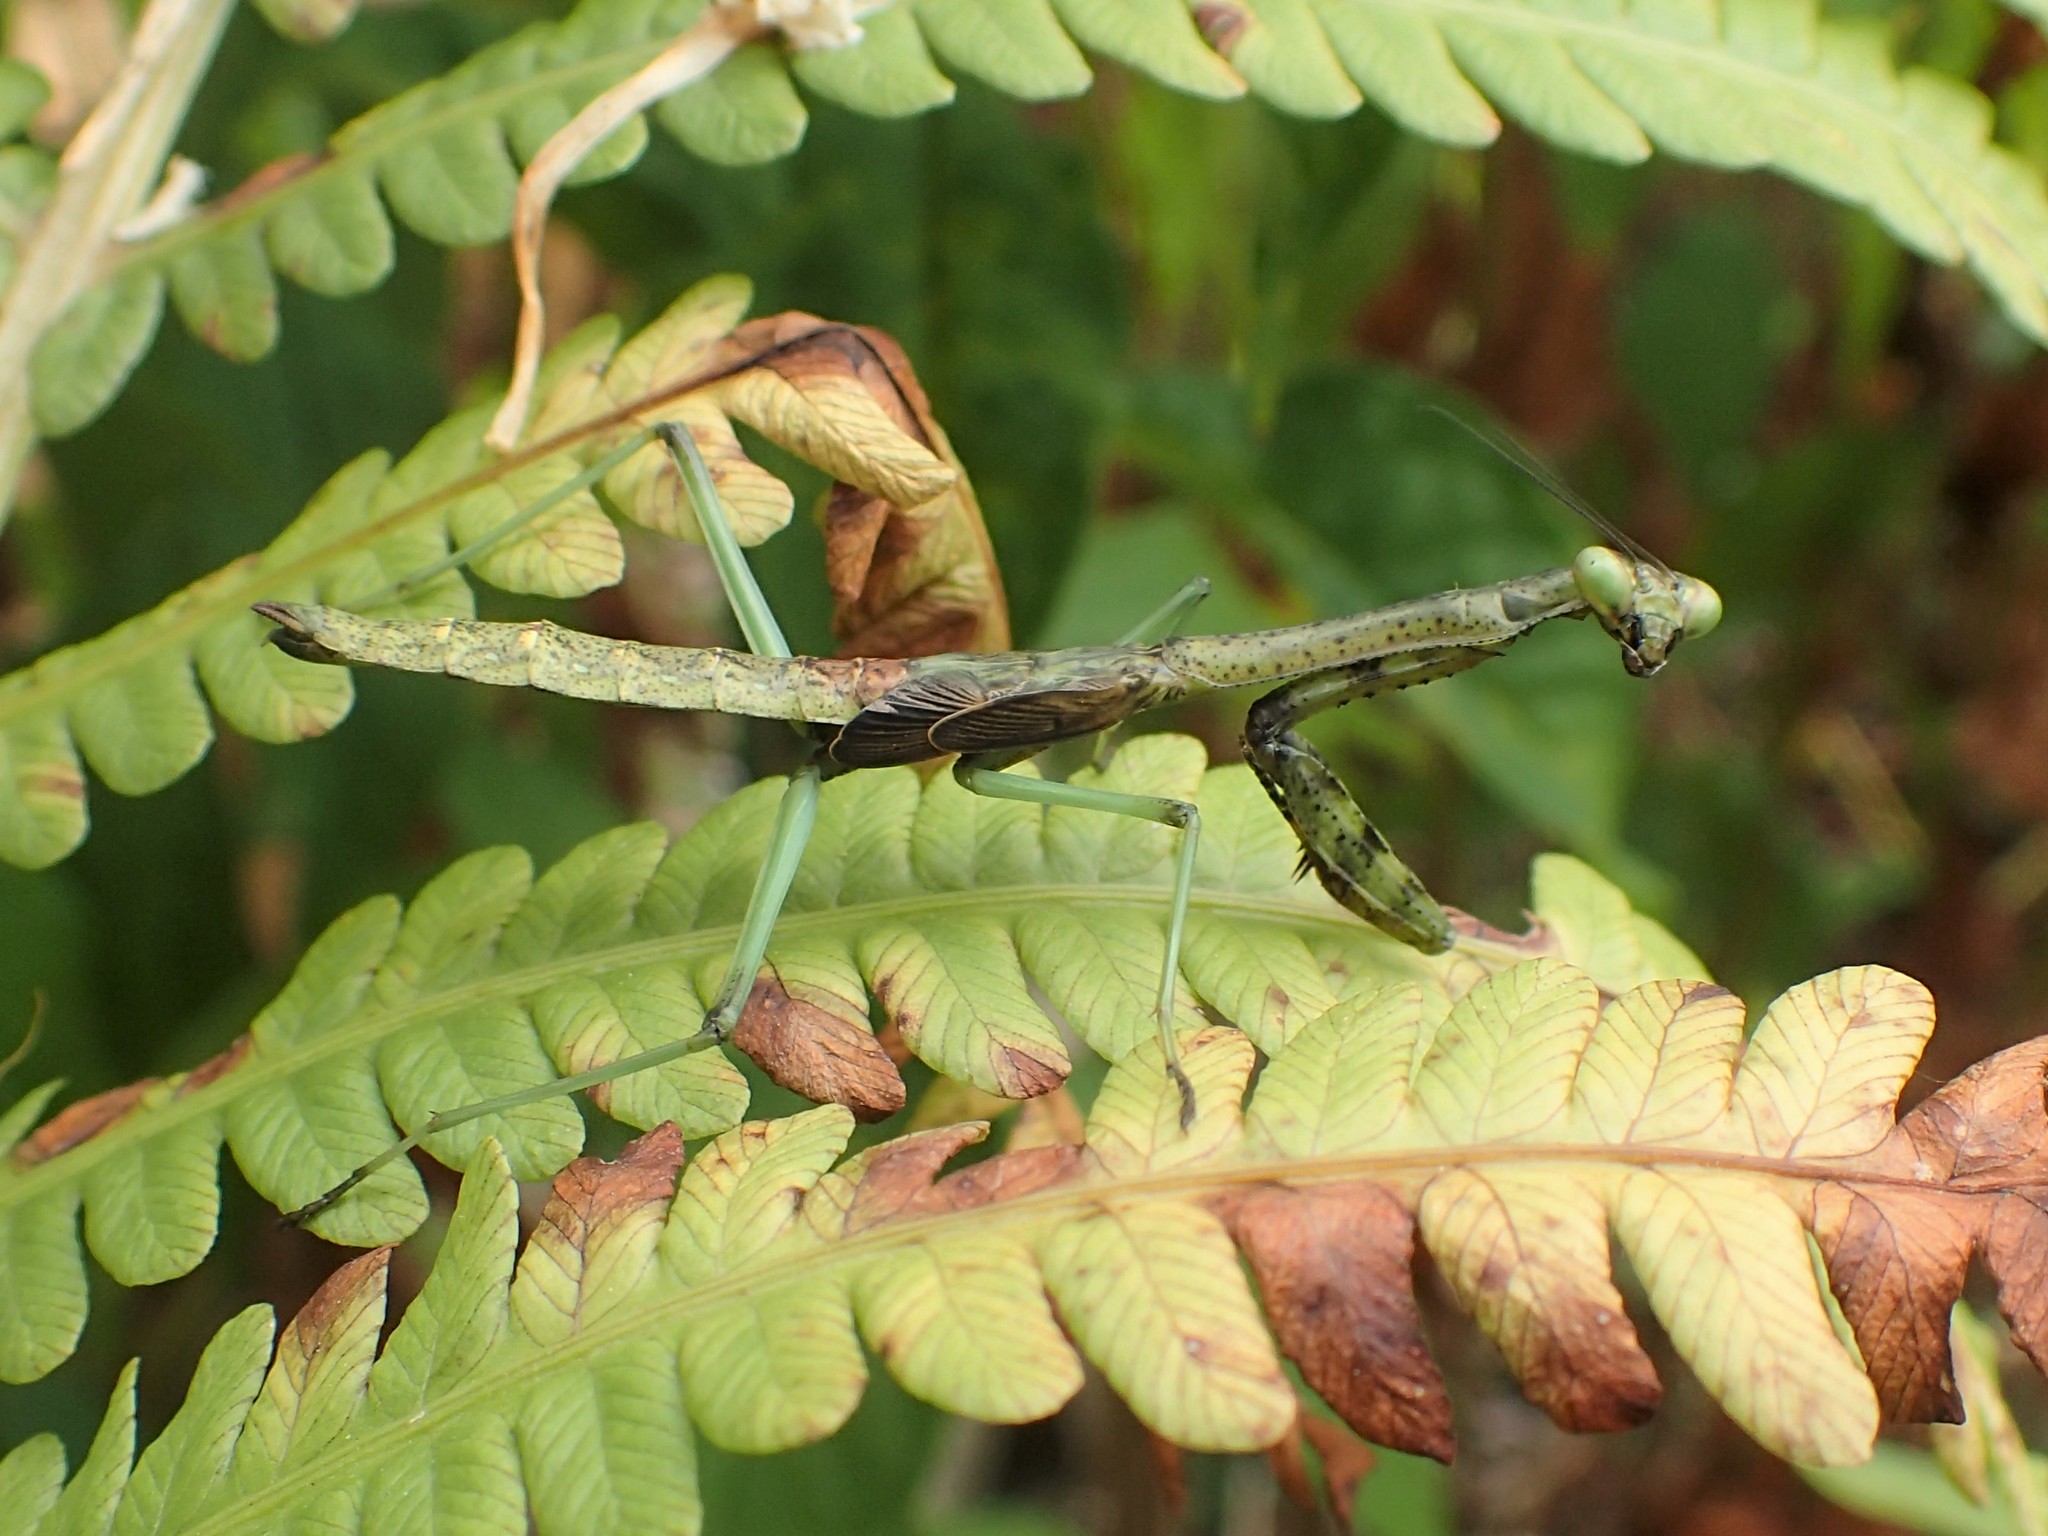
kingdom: Animalia
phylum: Arthropoda
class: Insecta
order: Mantodea
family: Mantidae
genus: Stagmomantis
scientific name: Stagmomantis carolina
